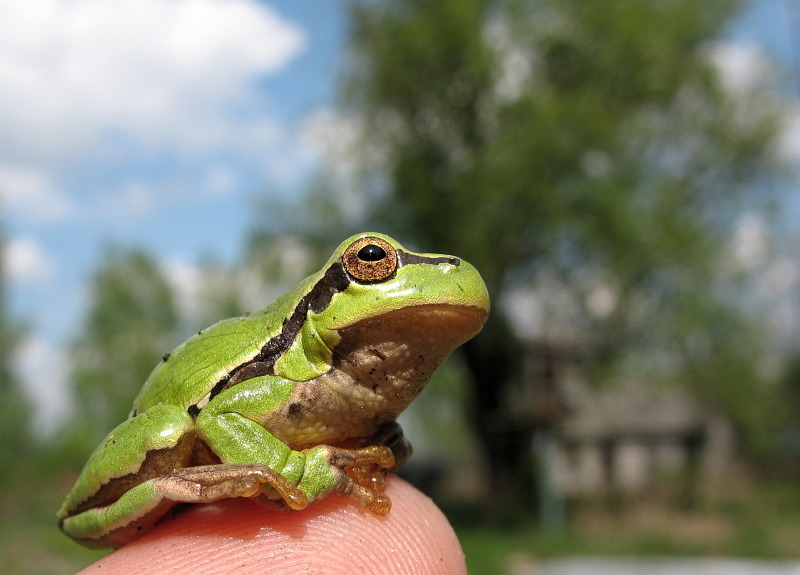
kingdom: Animalia
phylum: Chordata
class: Amphibia
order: Anura
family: Hylidae
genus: Hyla
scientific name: Hyla
